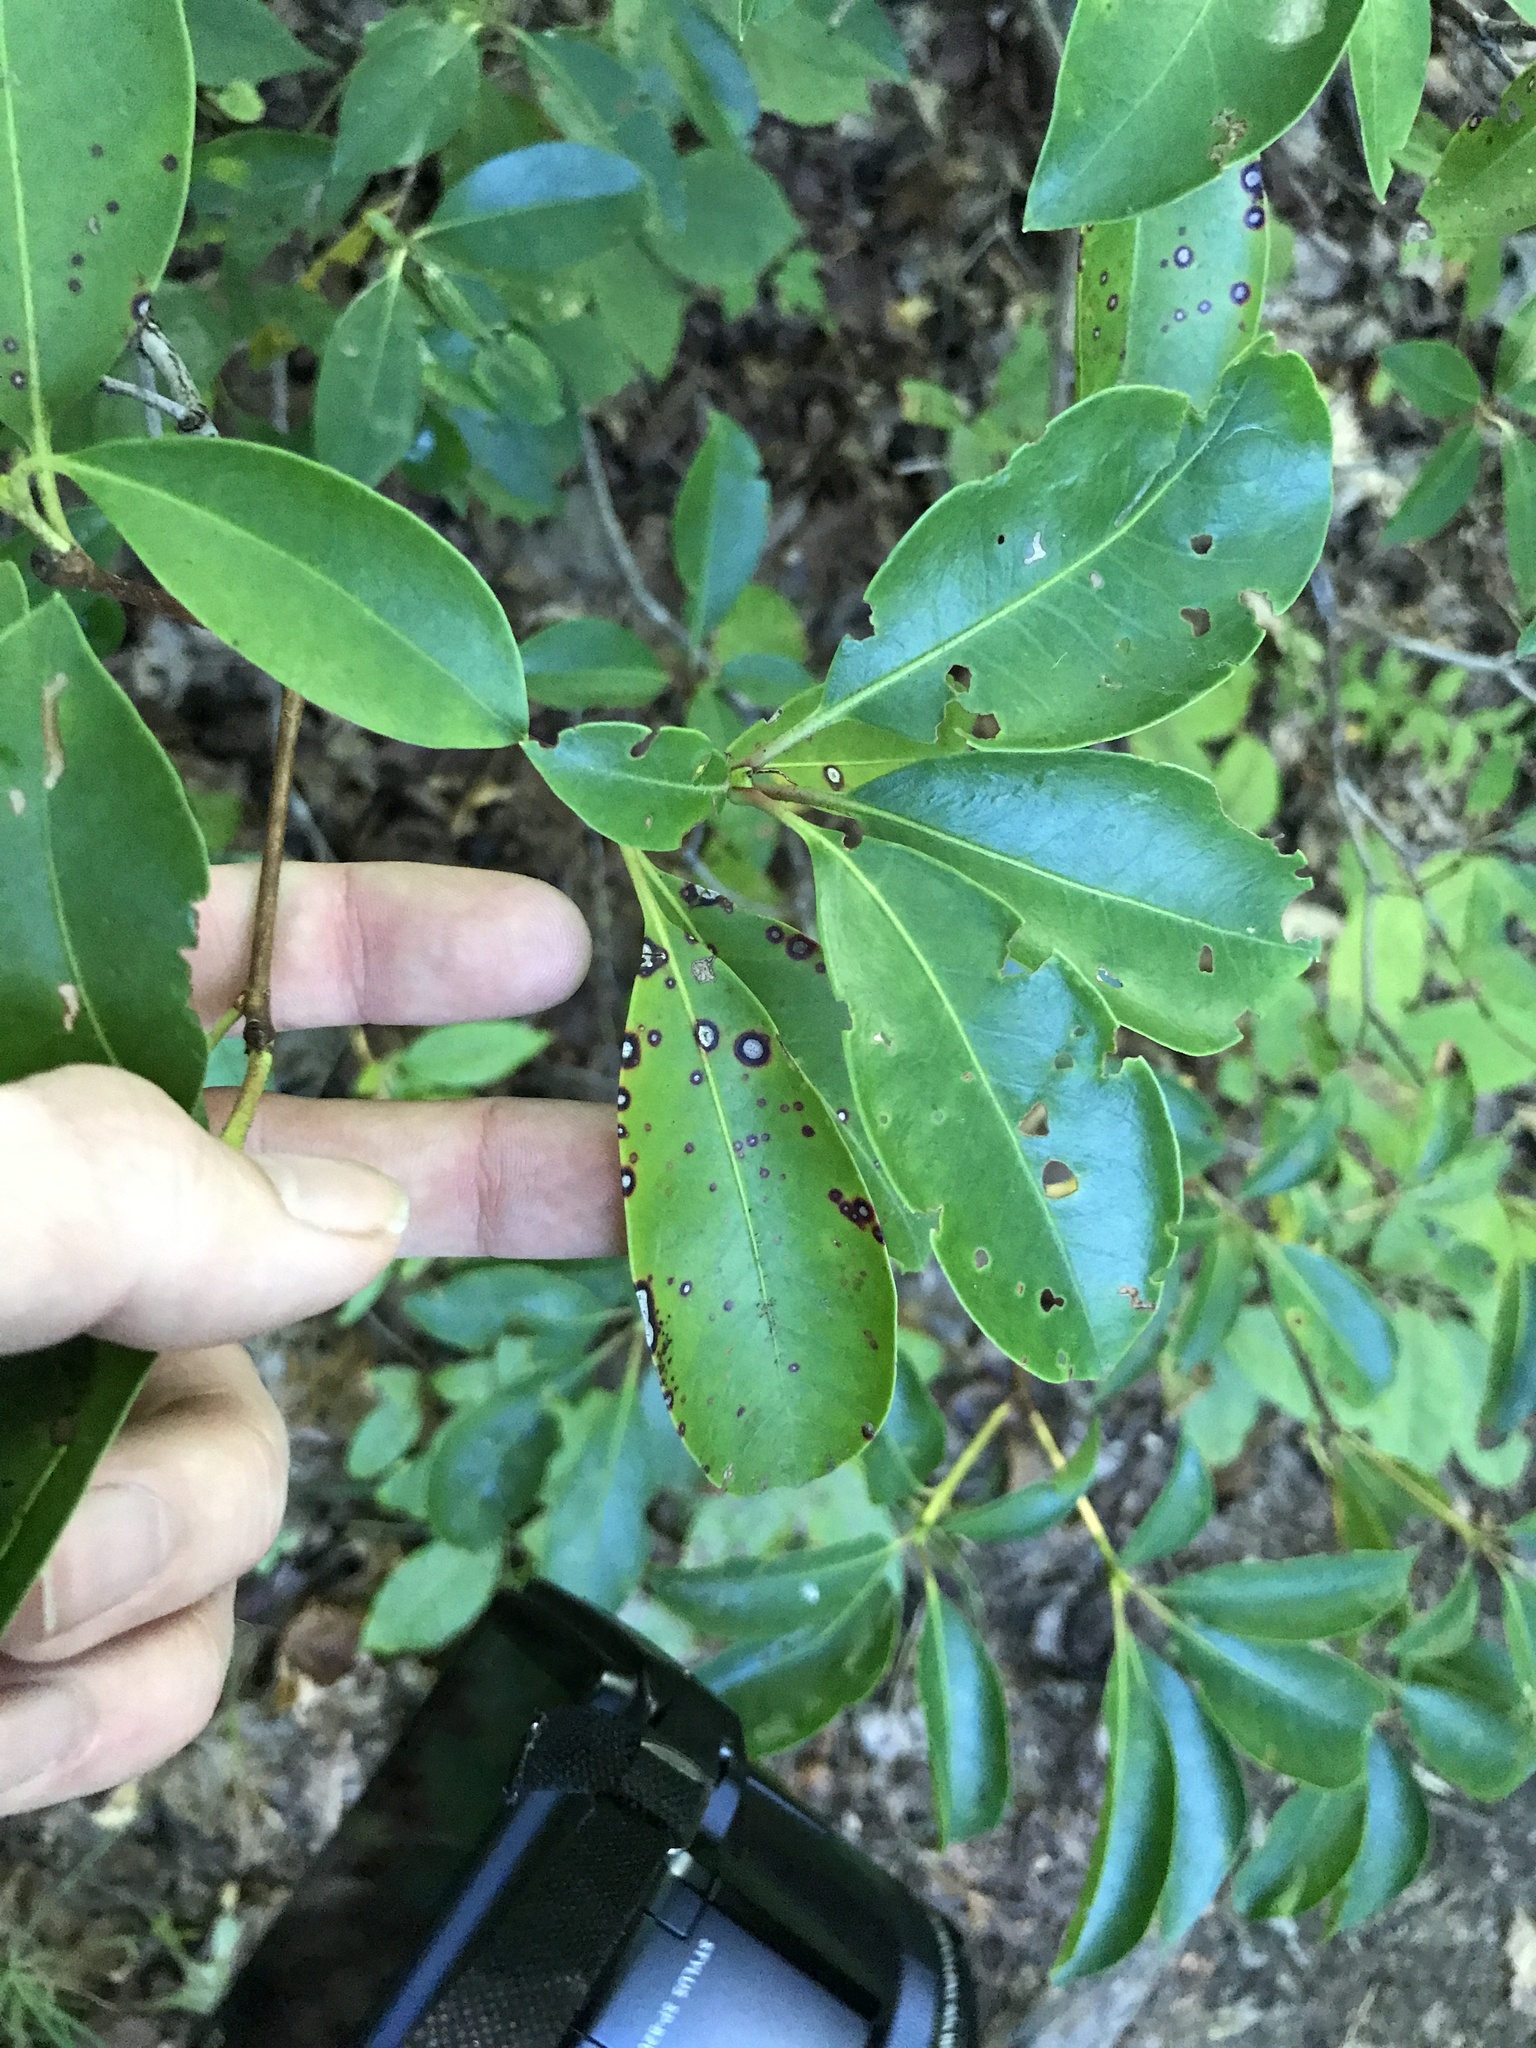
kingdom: Plantae
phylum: Tracheophyta
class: Magnoliopsida
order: Ericales
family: Ericaceae
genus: Kalmia
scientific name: Kalmia latifolia
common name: Mountain-laurel
